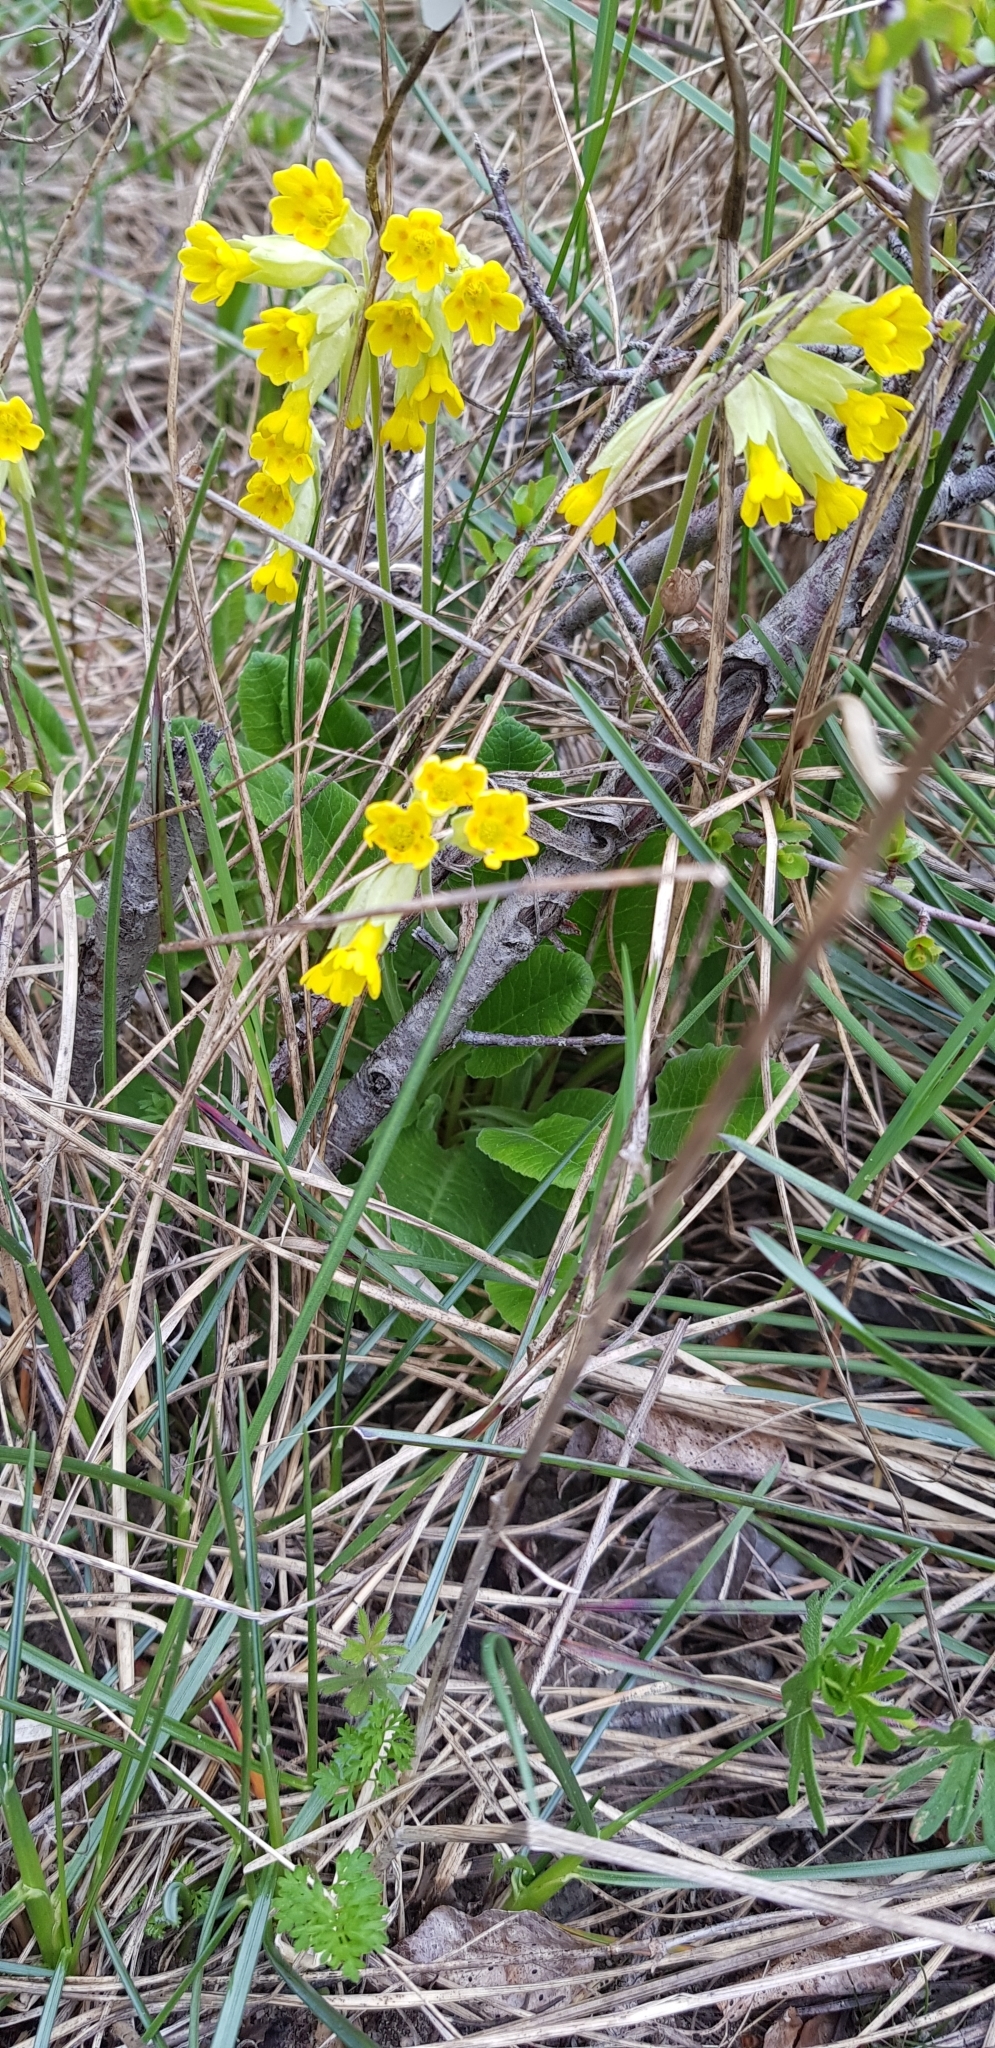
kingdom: Plantae
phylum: Tracheophyta
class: Magnoliopsida
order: Ericales
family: Primulaceae
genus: Primula
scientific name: Primula veris
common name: Cowslip
